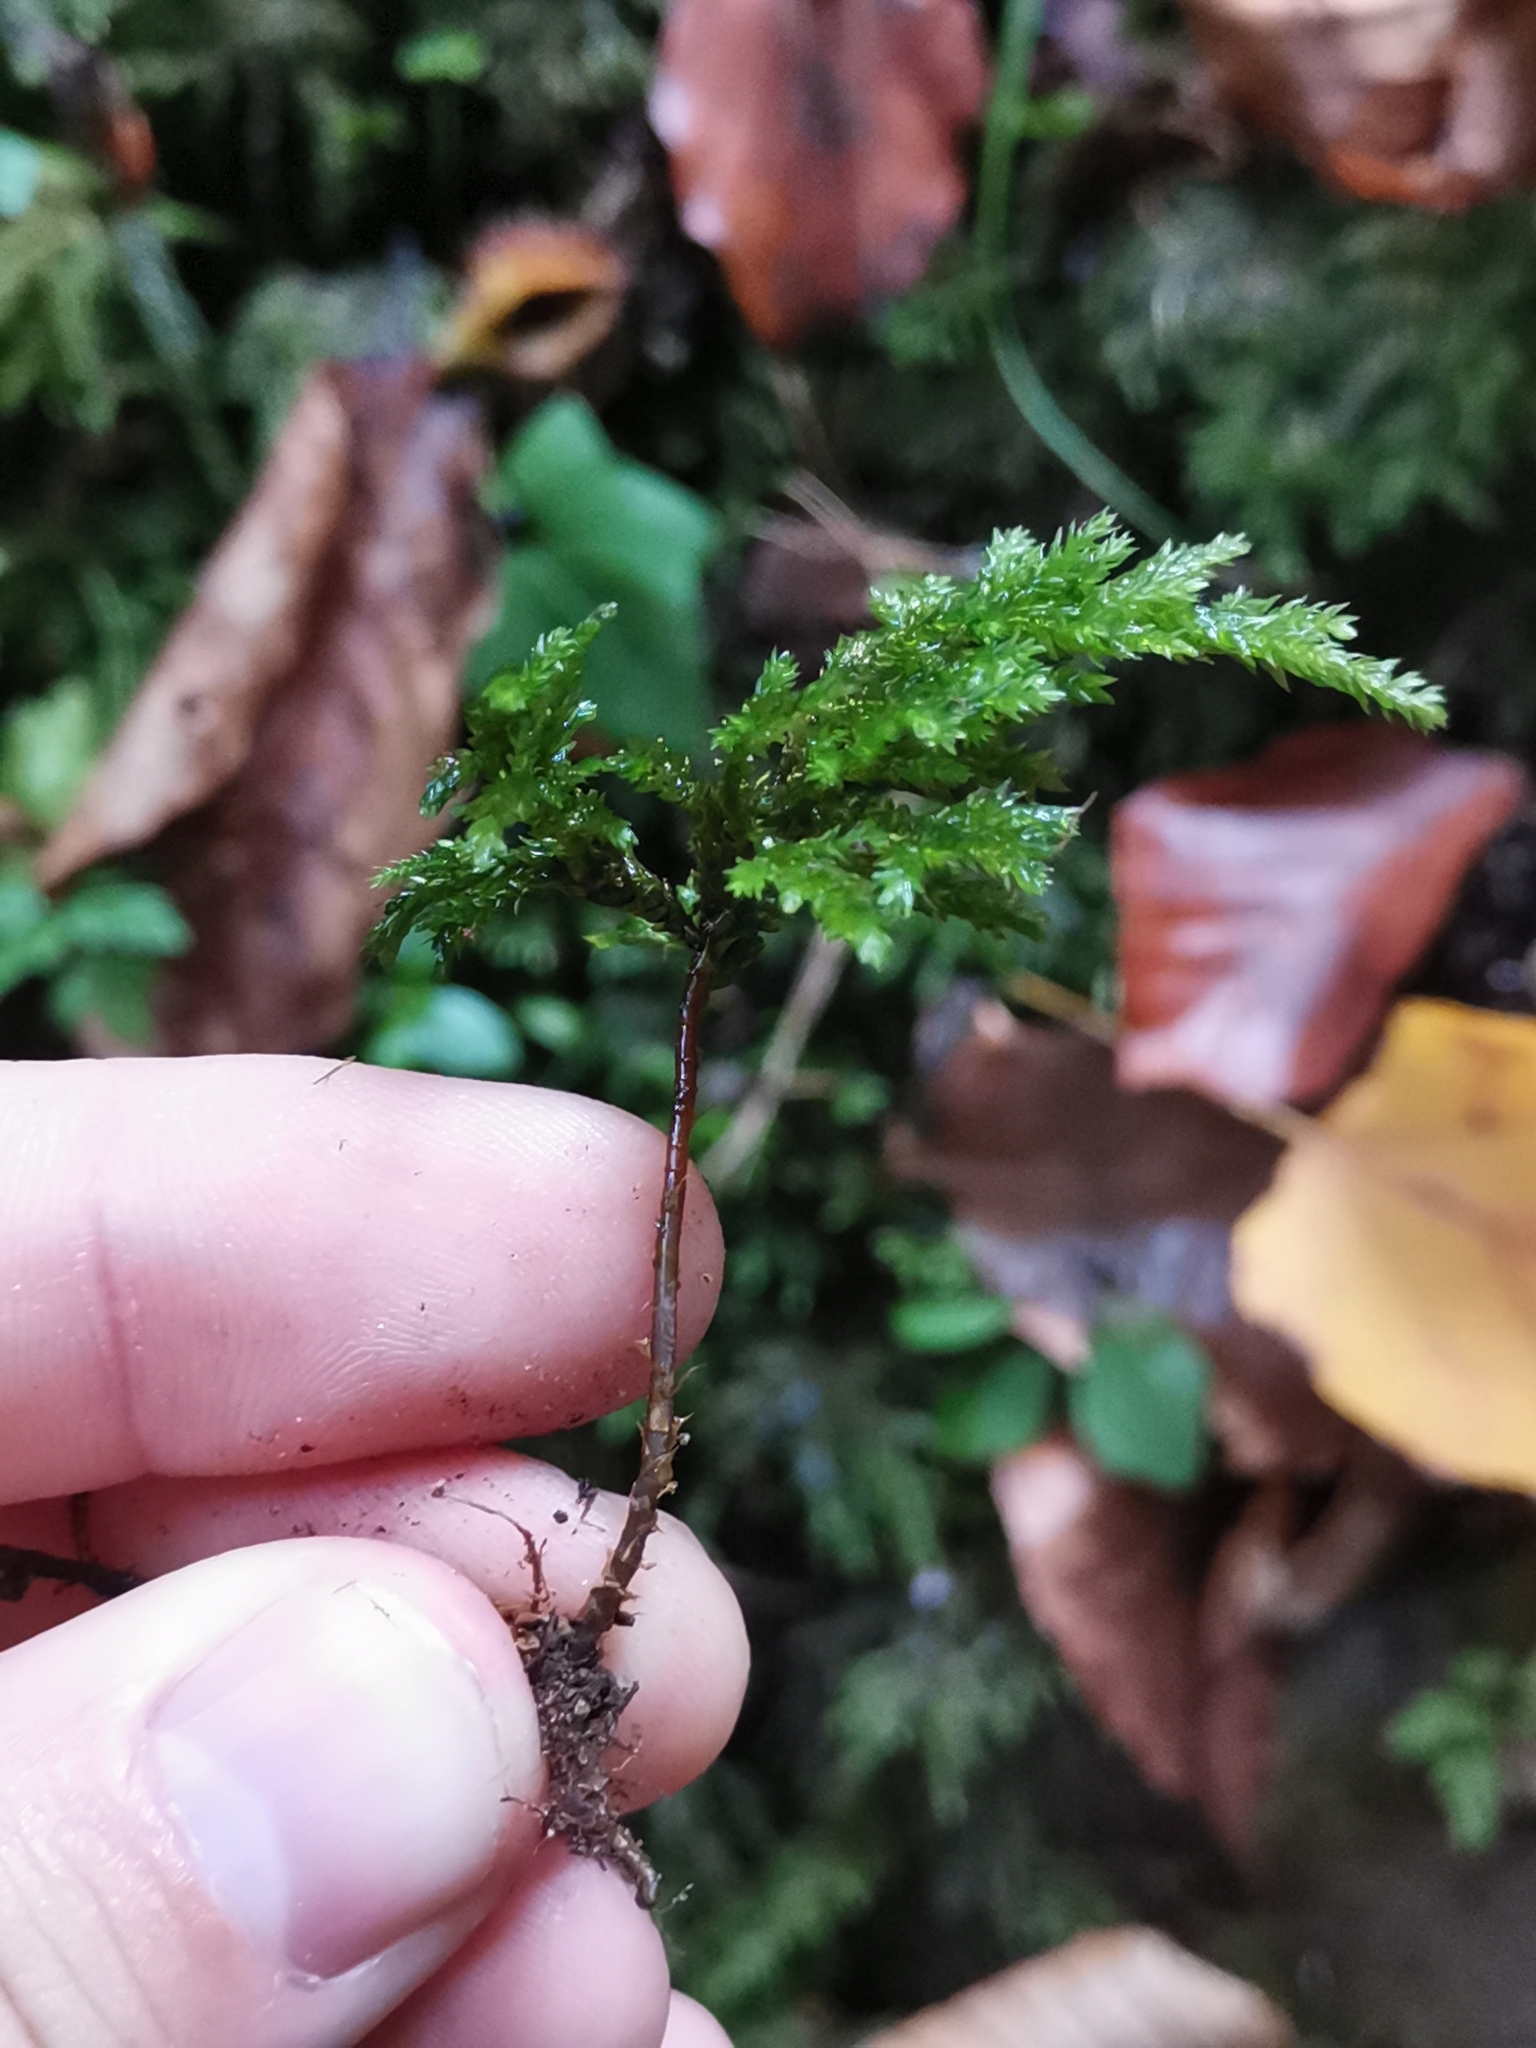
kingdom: Plantae
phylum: Bryophyta
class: Bryopsida
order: Hypnales
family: Neckeraceae
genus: Thamnobryum
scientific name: Thamnobryum alopecurum
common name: Fox-tail feather-moss
